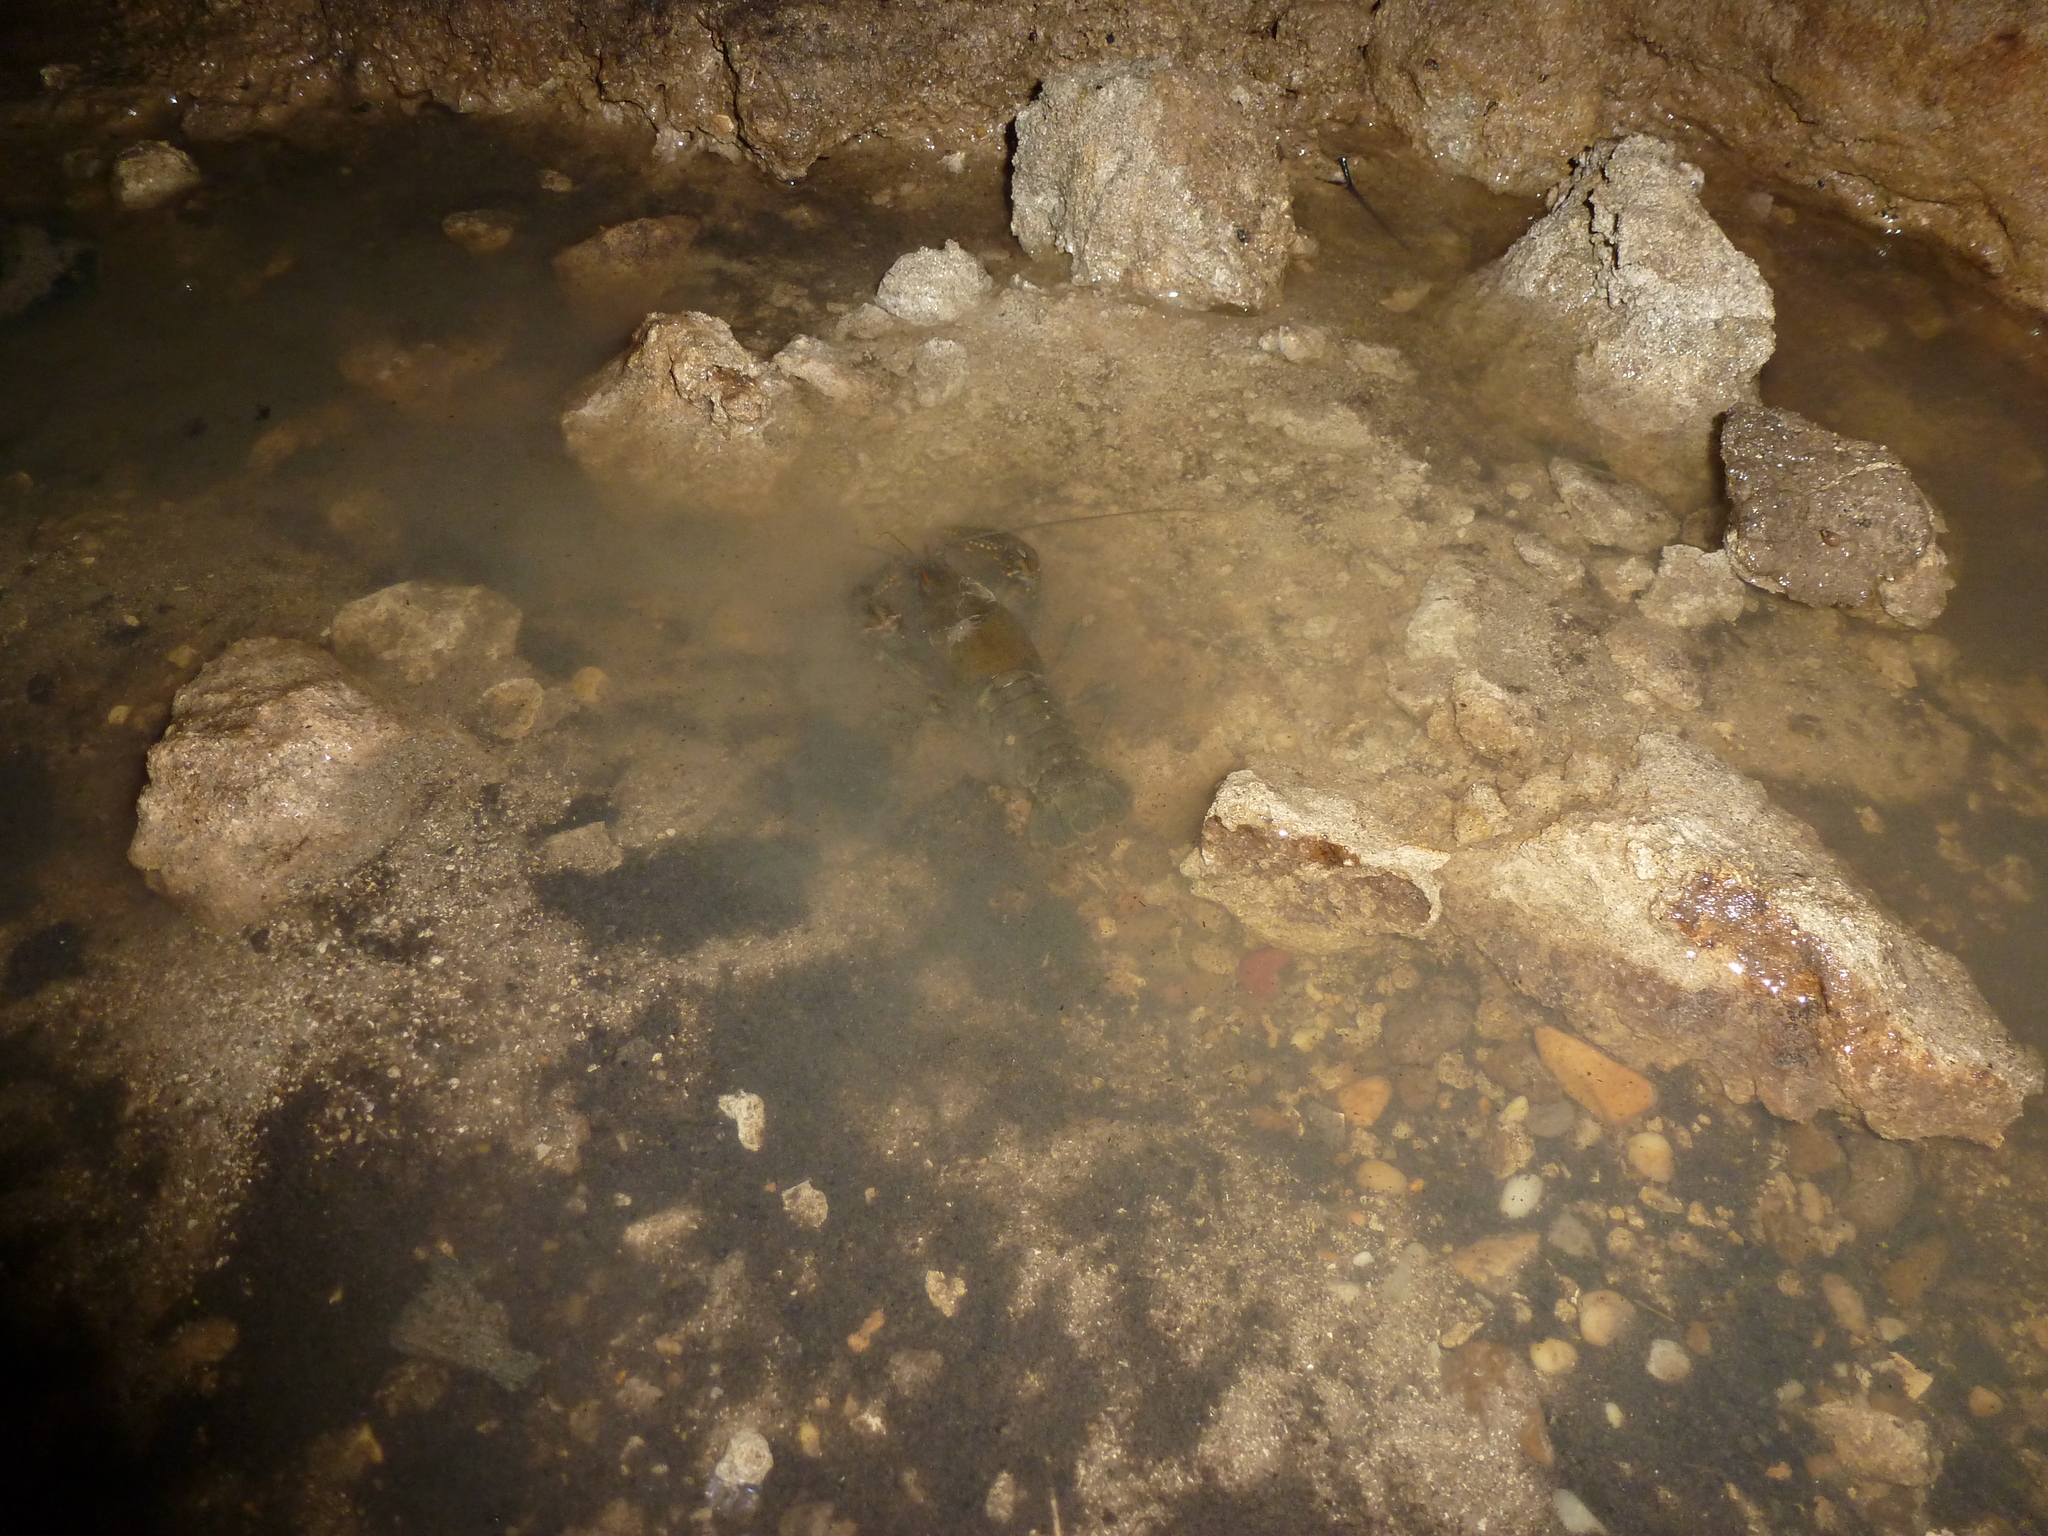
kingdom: Animalia
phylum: Arthropoda
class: Malacostraca
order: Decapoda
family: Cambaridae
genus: Cambarus
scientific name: Cambarus striatus
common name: Ambiguous crayfish
